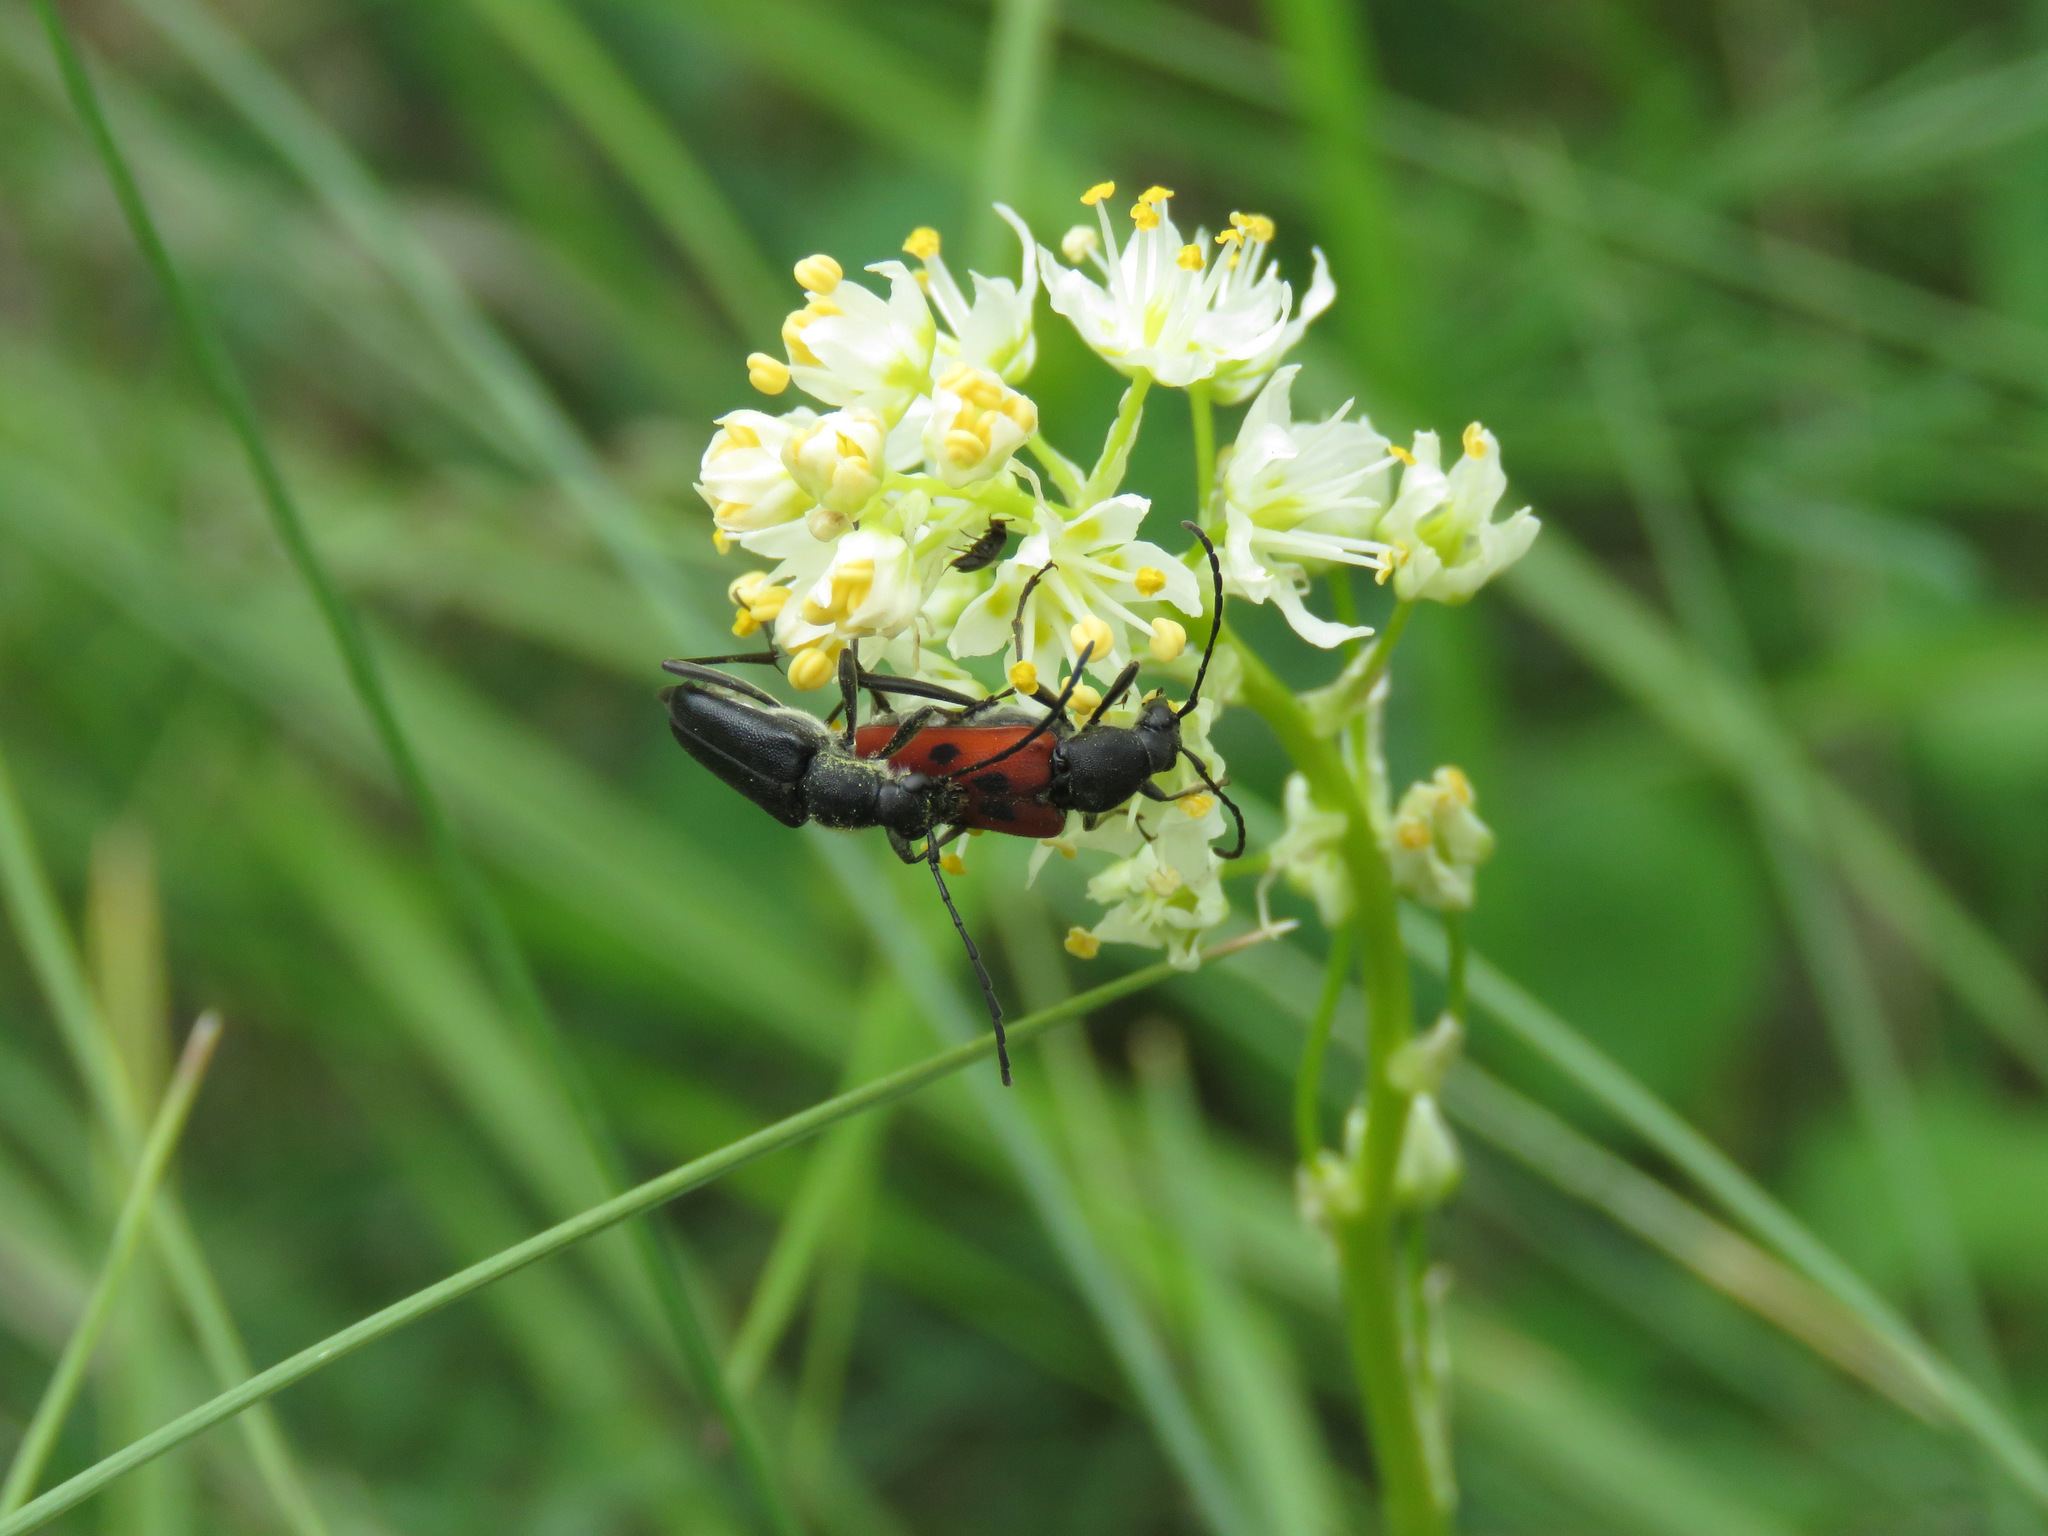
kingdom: Animalia
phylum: Arthropoda
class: Insecta
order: Coleoptera
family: Cerambycidae
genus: Anastrangalia
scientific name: Anastrangalia laetifica
